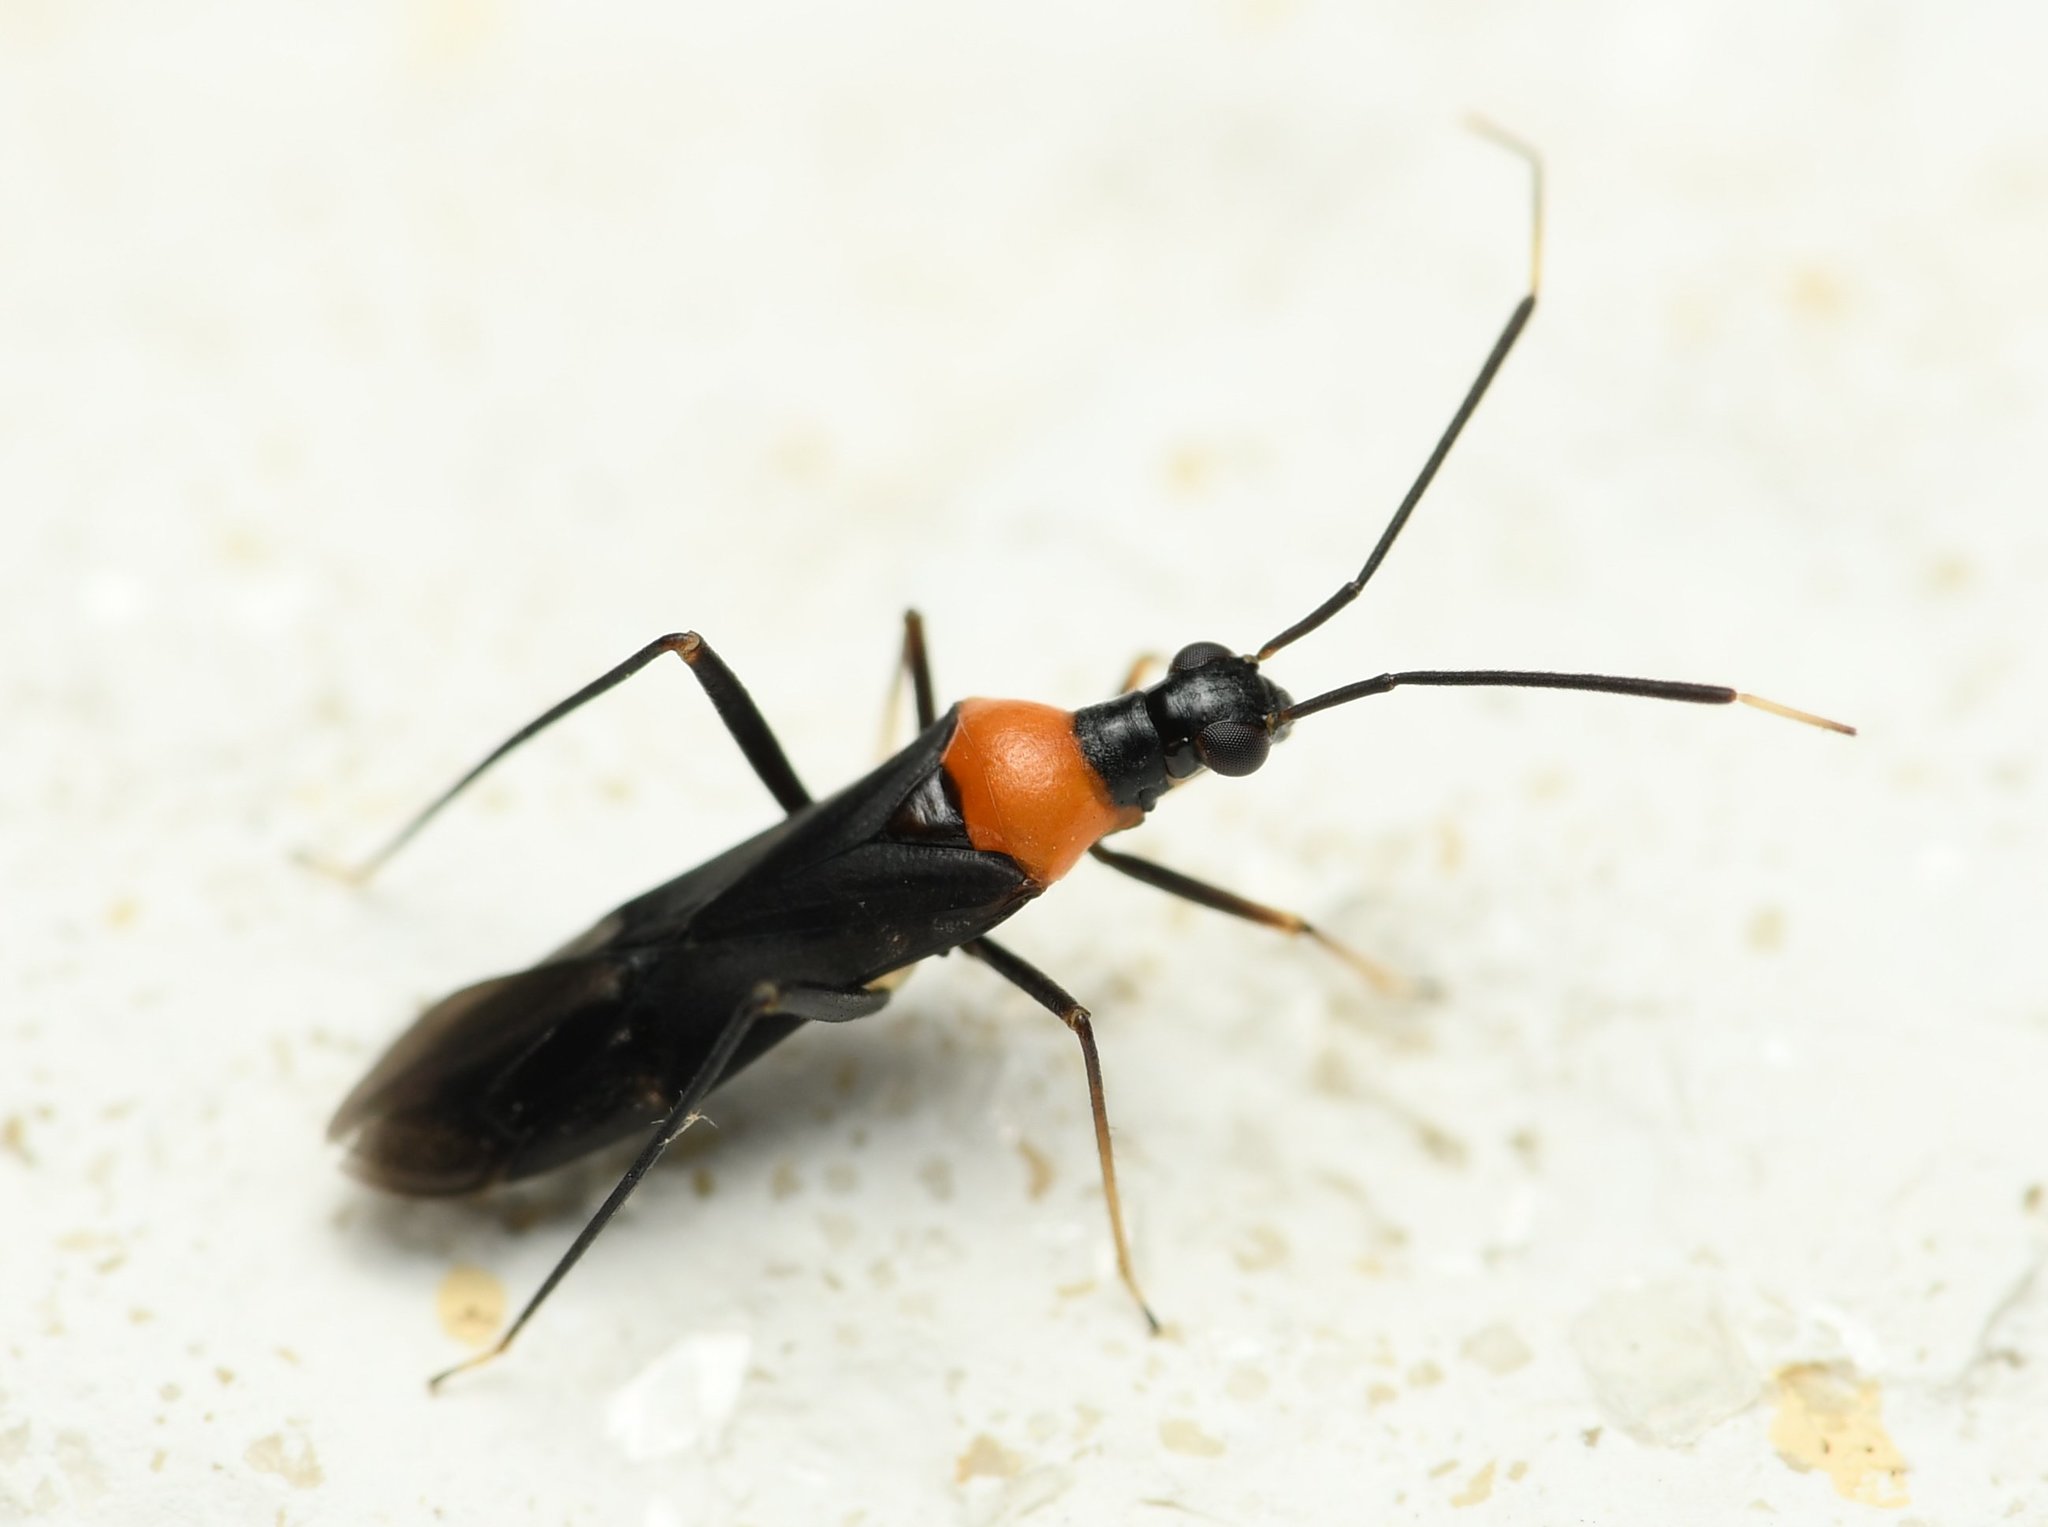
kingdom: Animalia
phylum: Arthropoda
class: Insecta
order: Hemiptera
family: Miridae
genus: Pseudoxenetus
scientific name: Pseudoxenetus regalis
